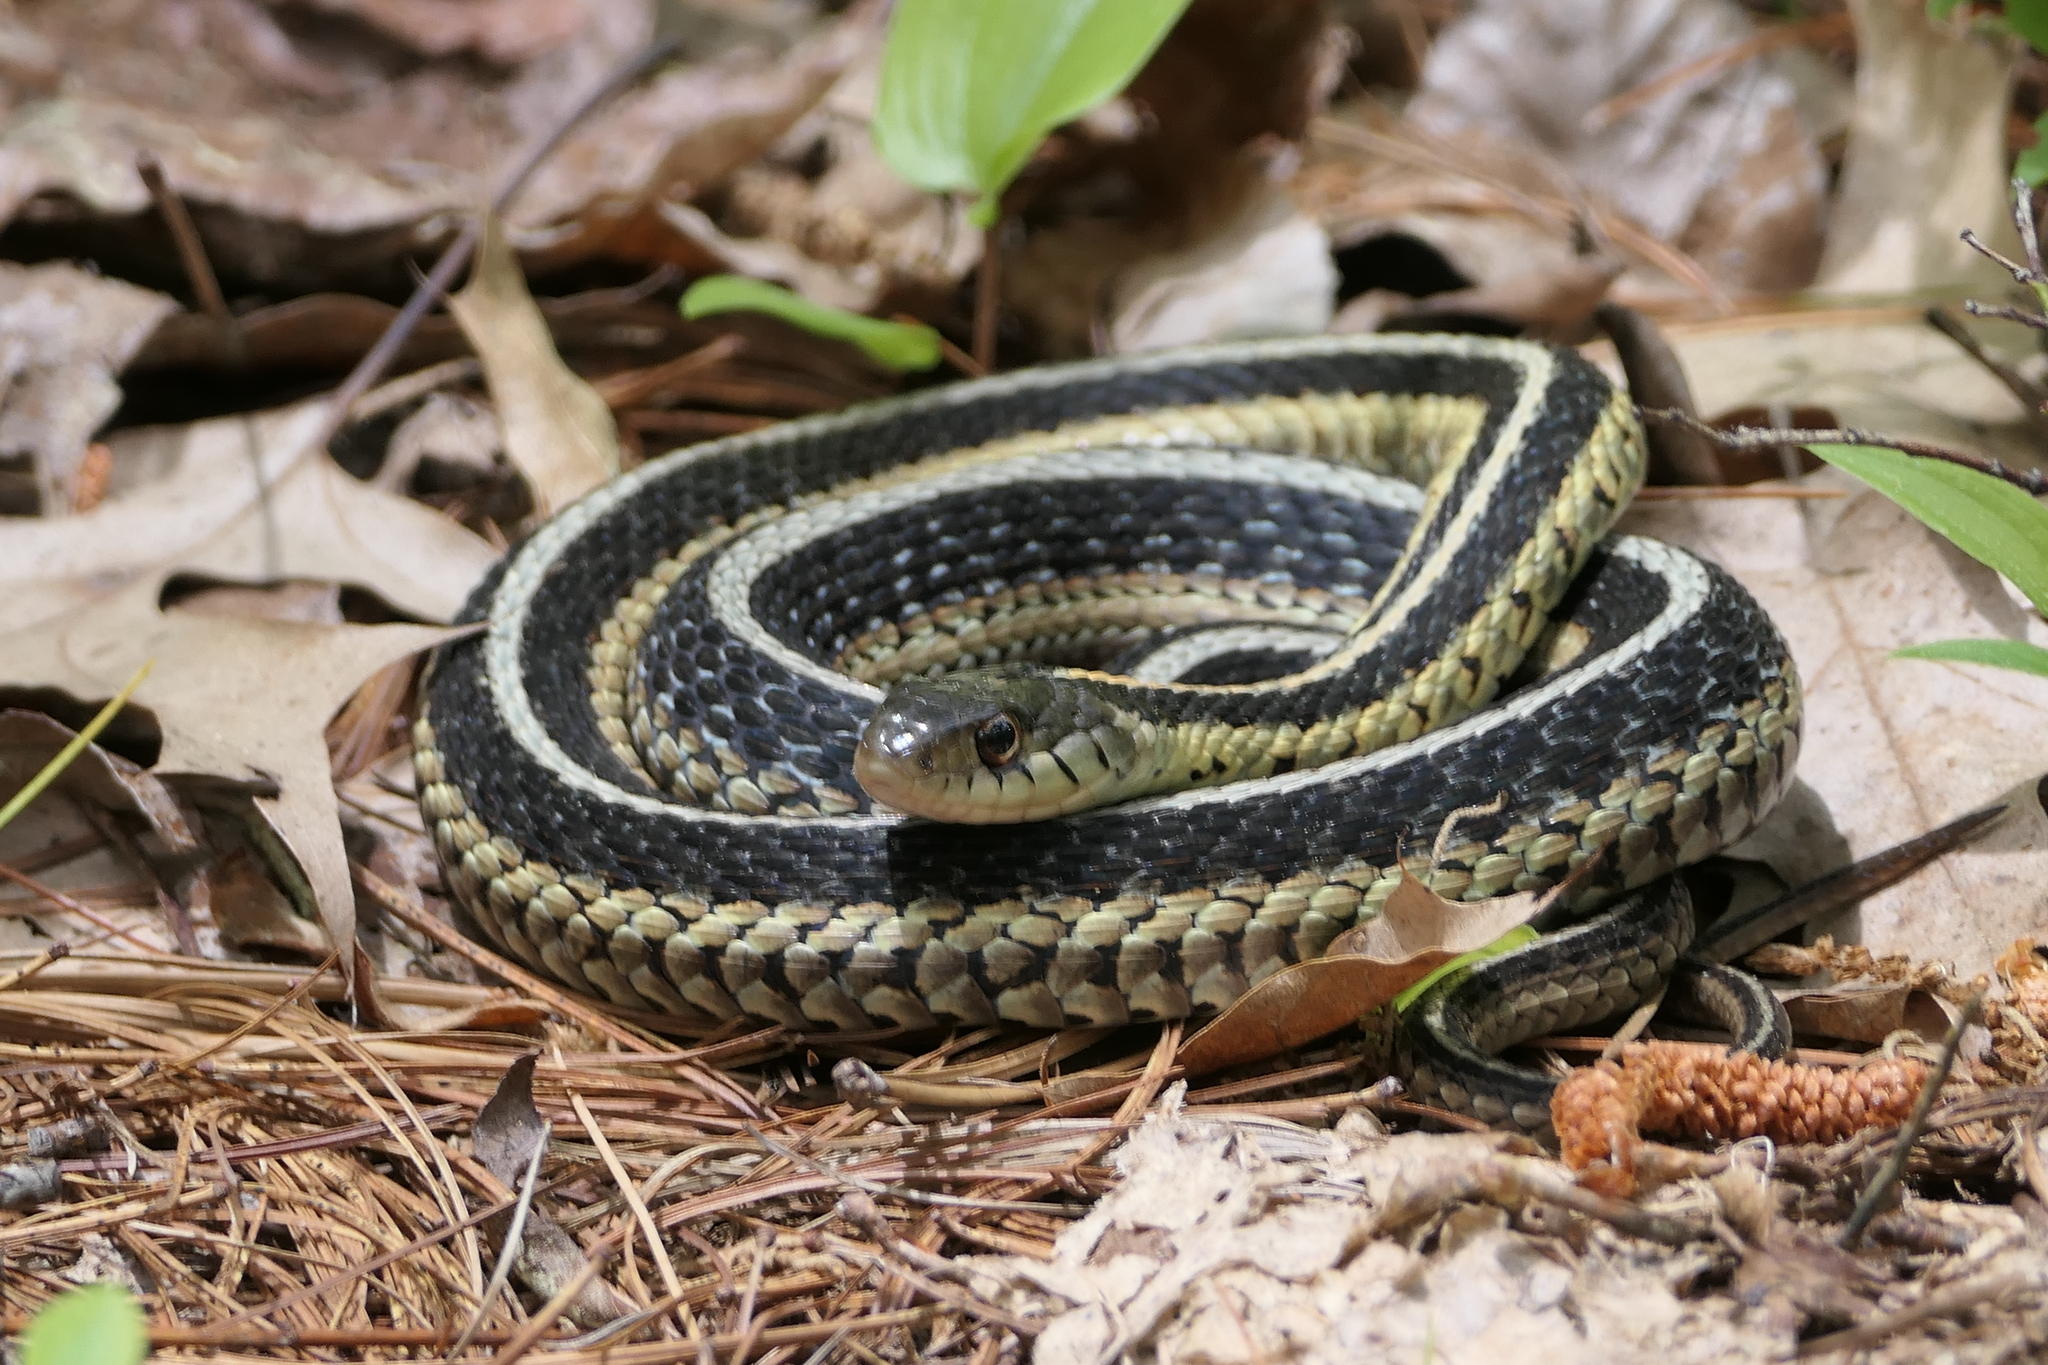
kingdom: Animalia
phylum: Chordata
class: Squamata
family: Colubridae
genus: Thamnophis
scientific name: Thamnophis sirtalis
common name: Common garter snake
